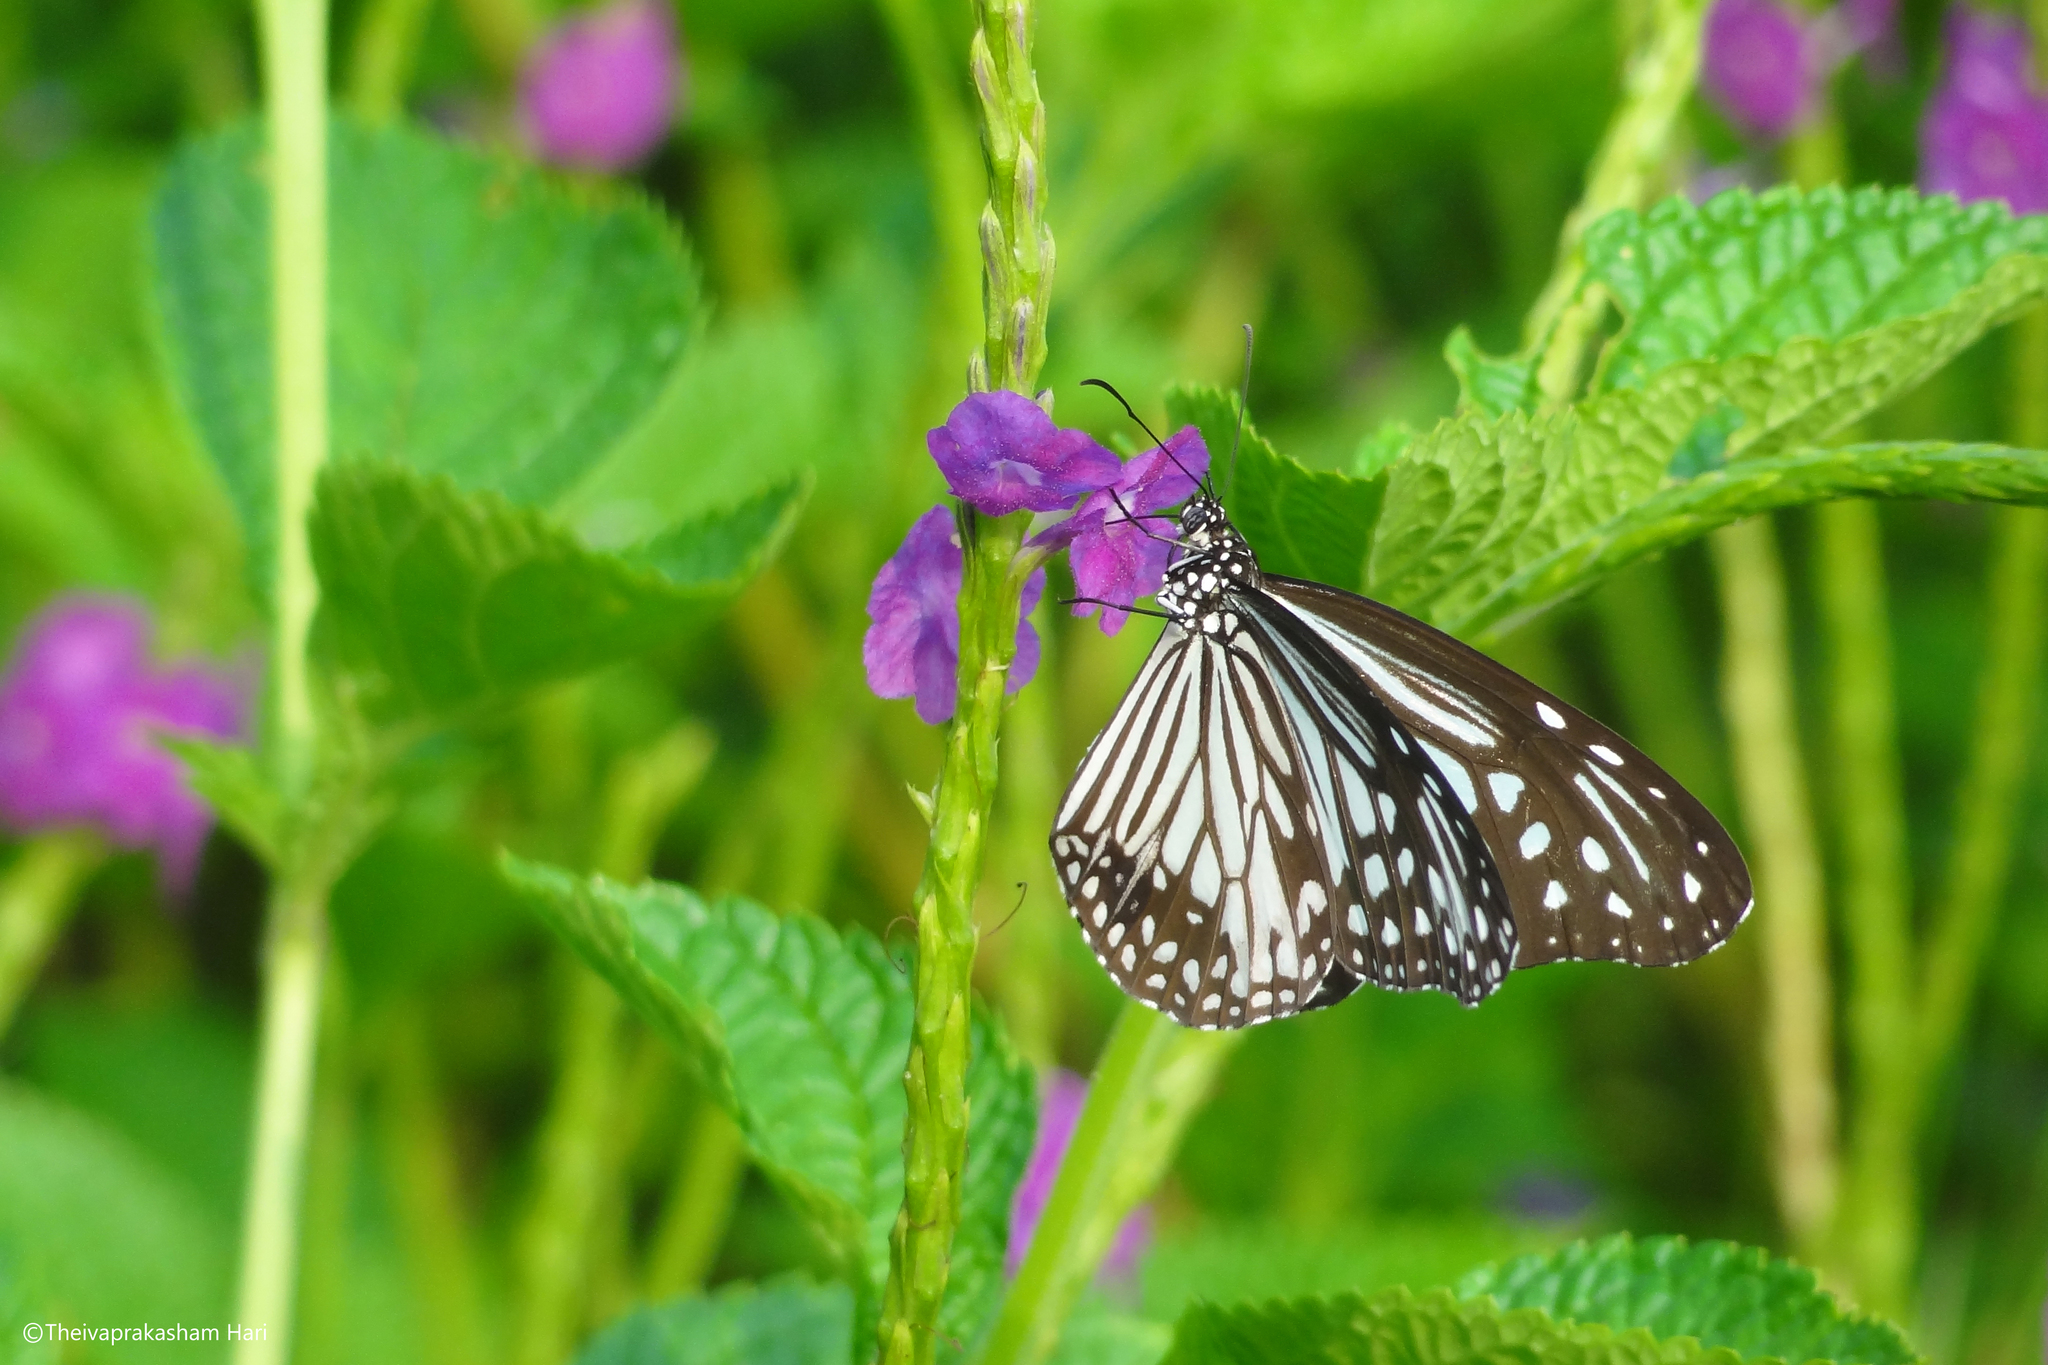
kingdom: Animalia
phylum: Arthropoda
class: Insecta
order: Lepidoptera
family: Nymphalidae
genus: Parantica
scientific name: Parantica aglea
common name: Glassy tiger
